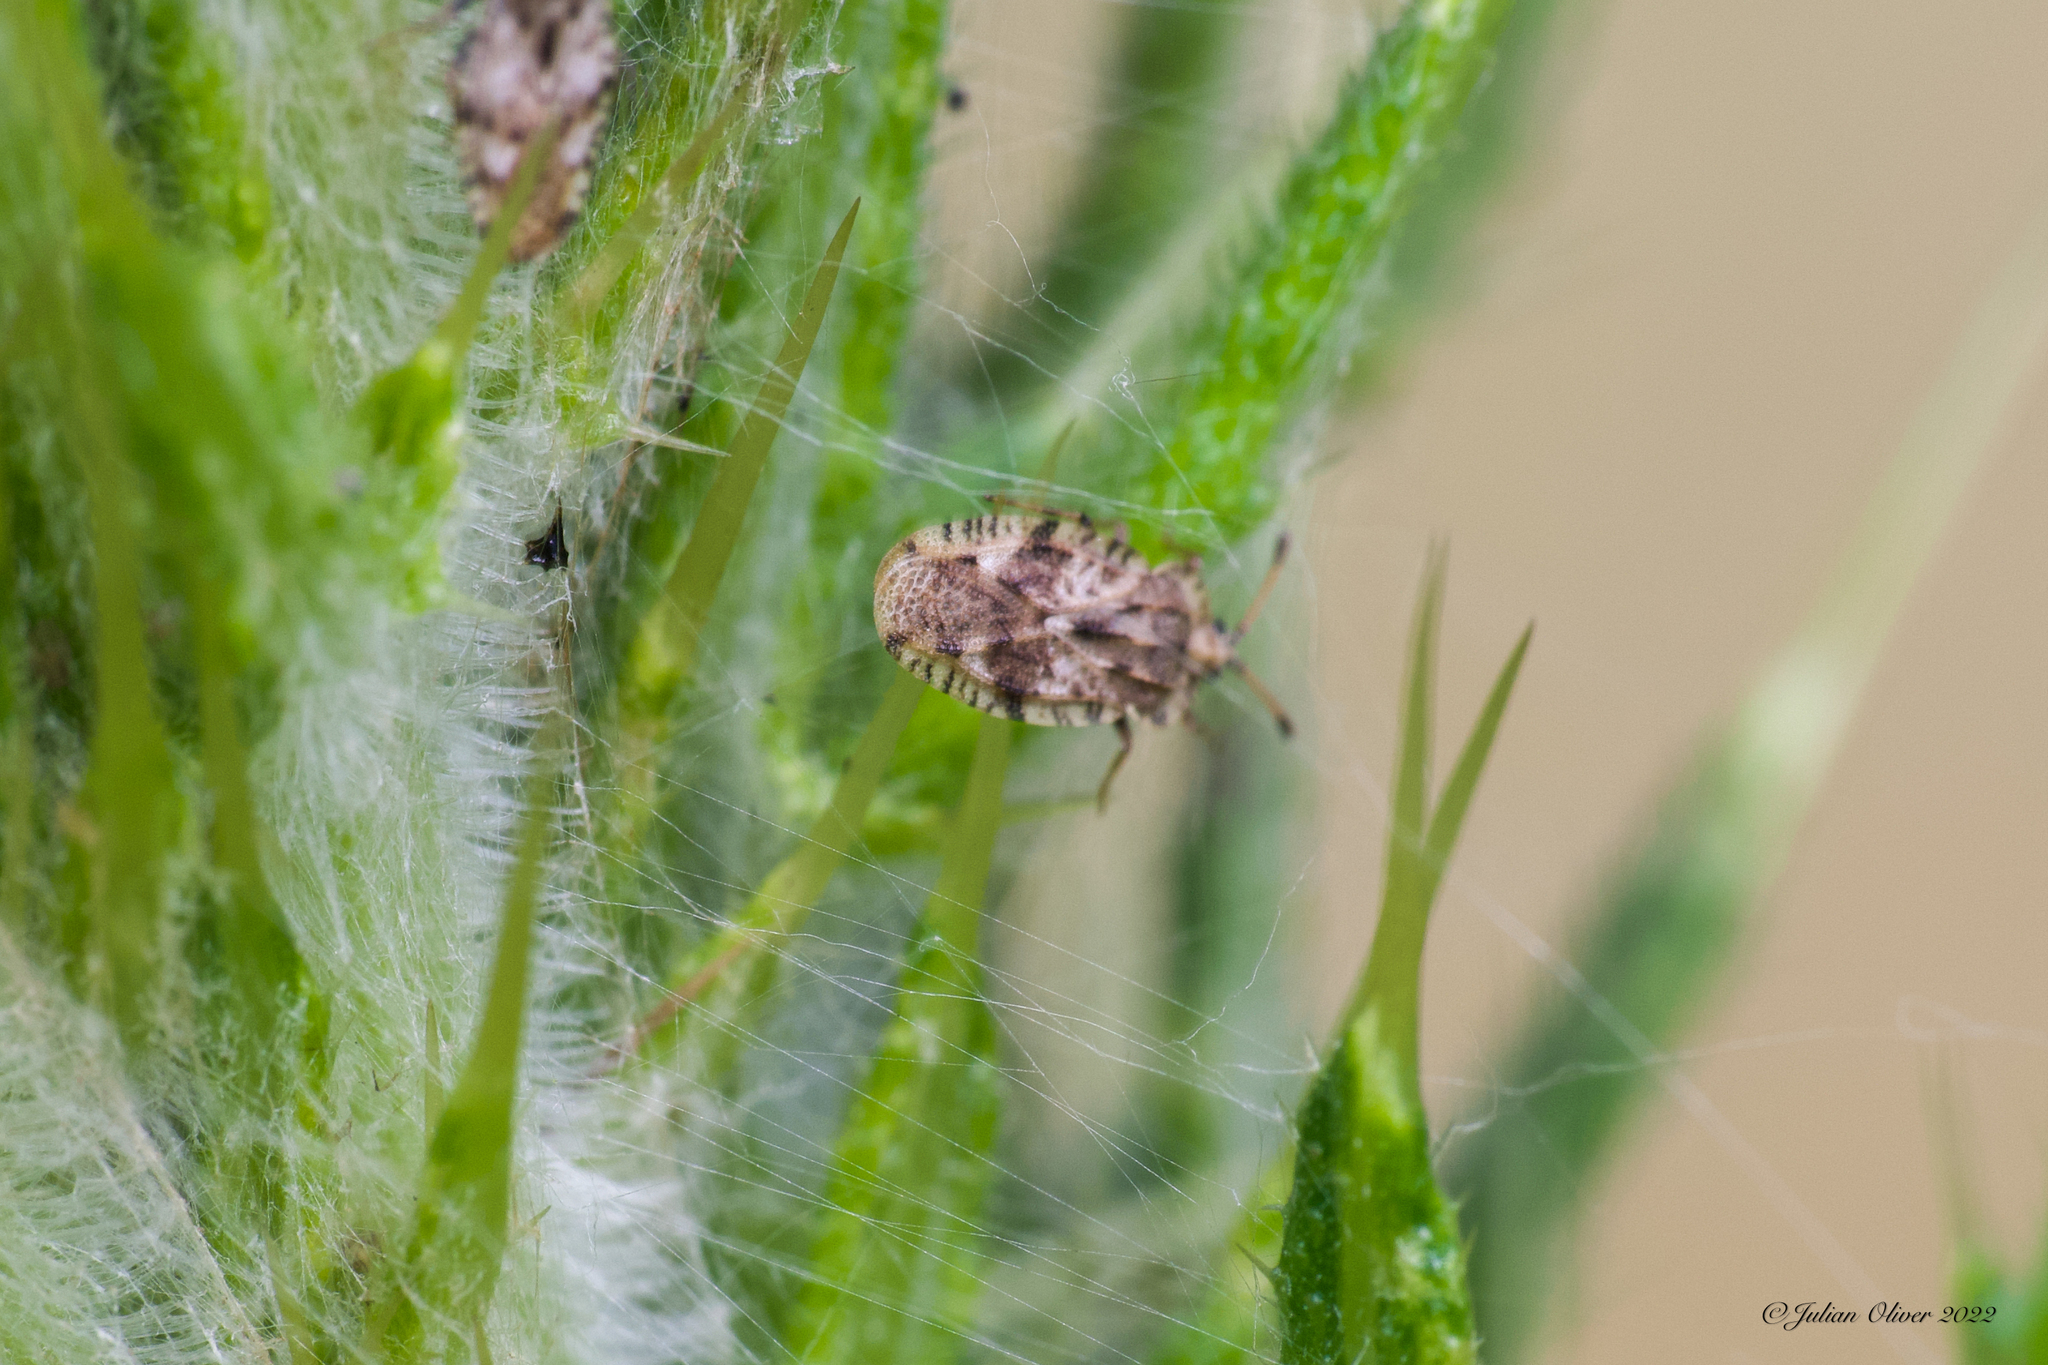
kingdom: Animalia
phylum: Arthropoda
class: Insecta
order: Hemiptera
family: Tingidae
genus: Tingis
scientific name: Tingis cardui
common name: Spear thistle lacebug
